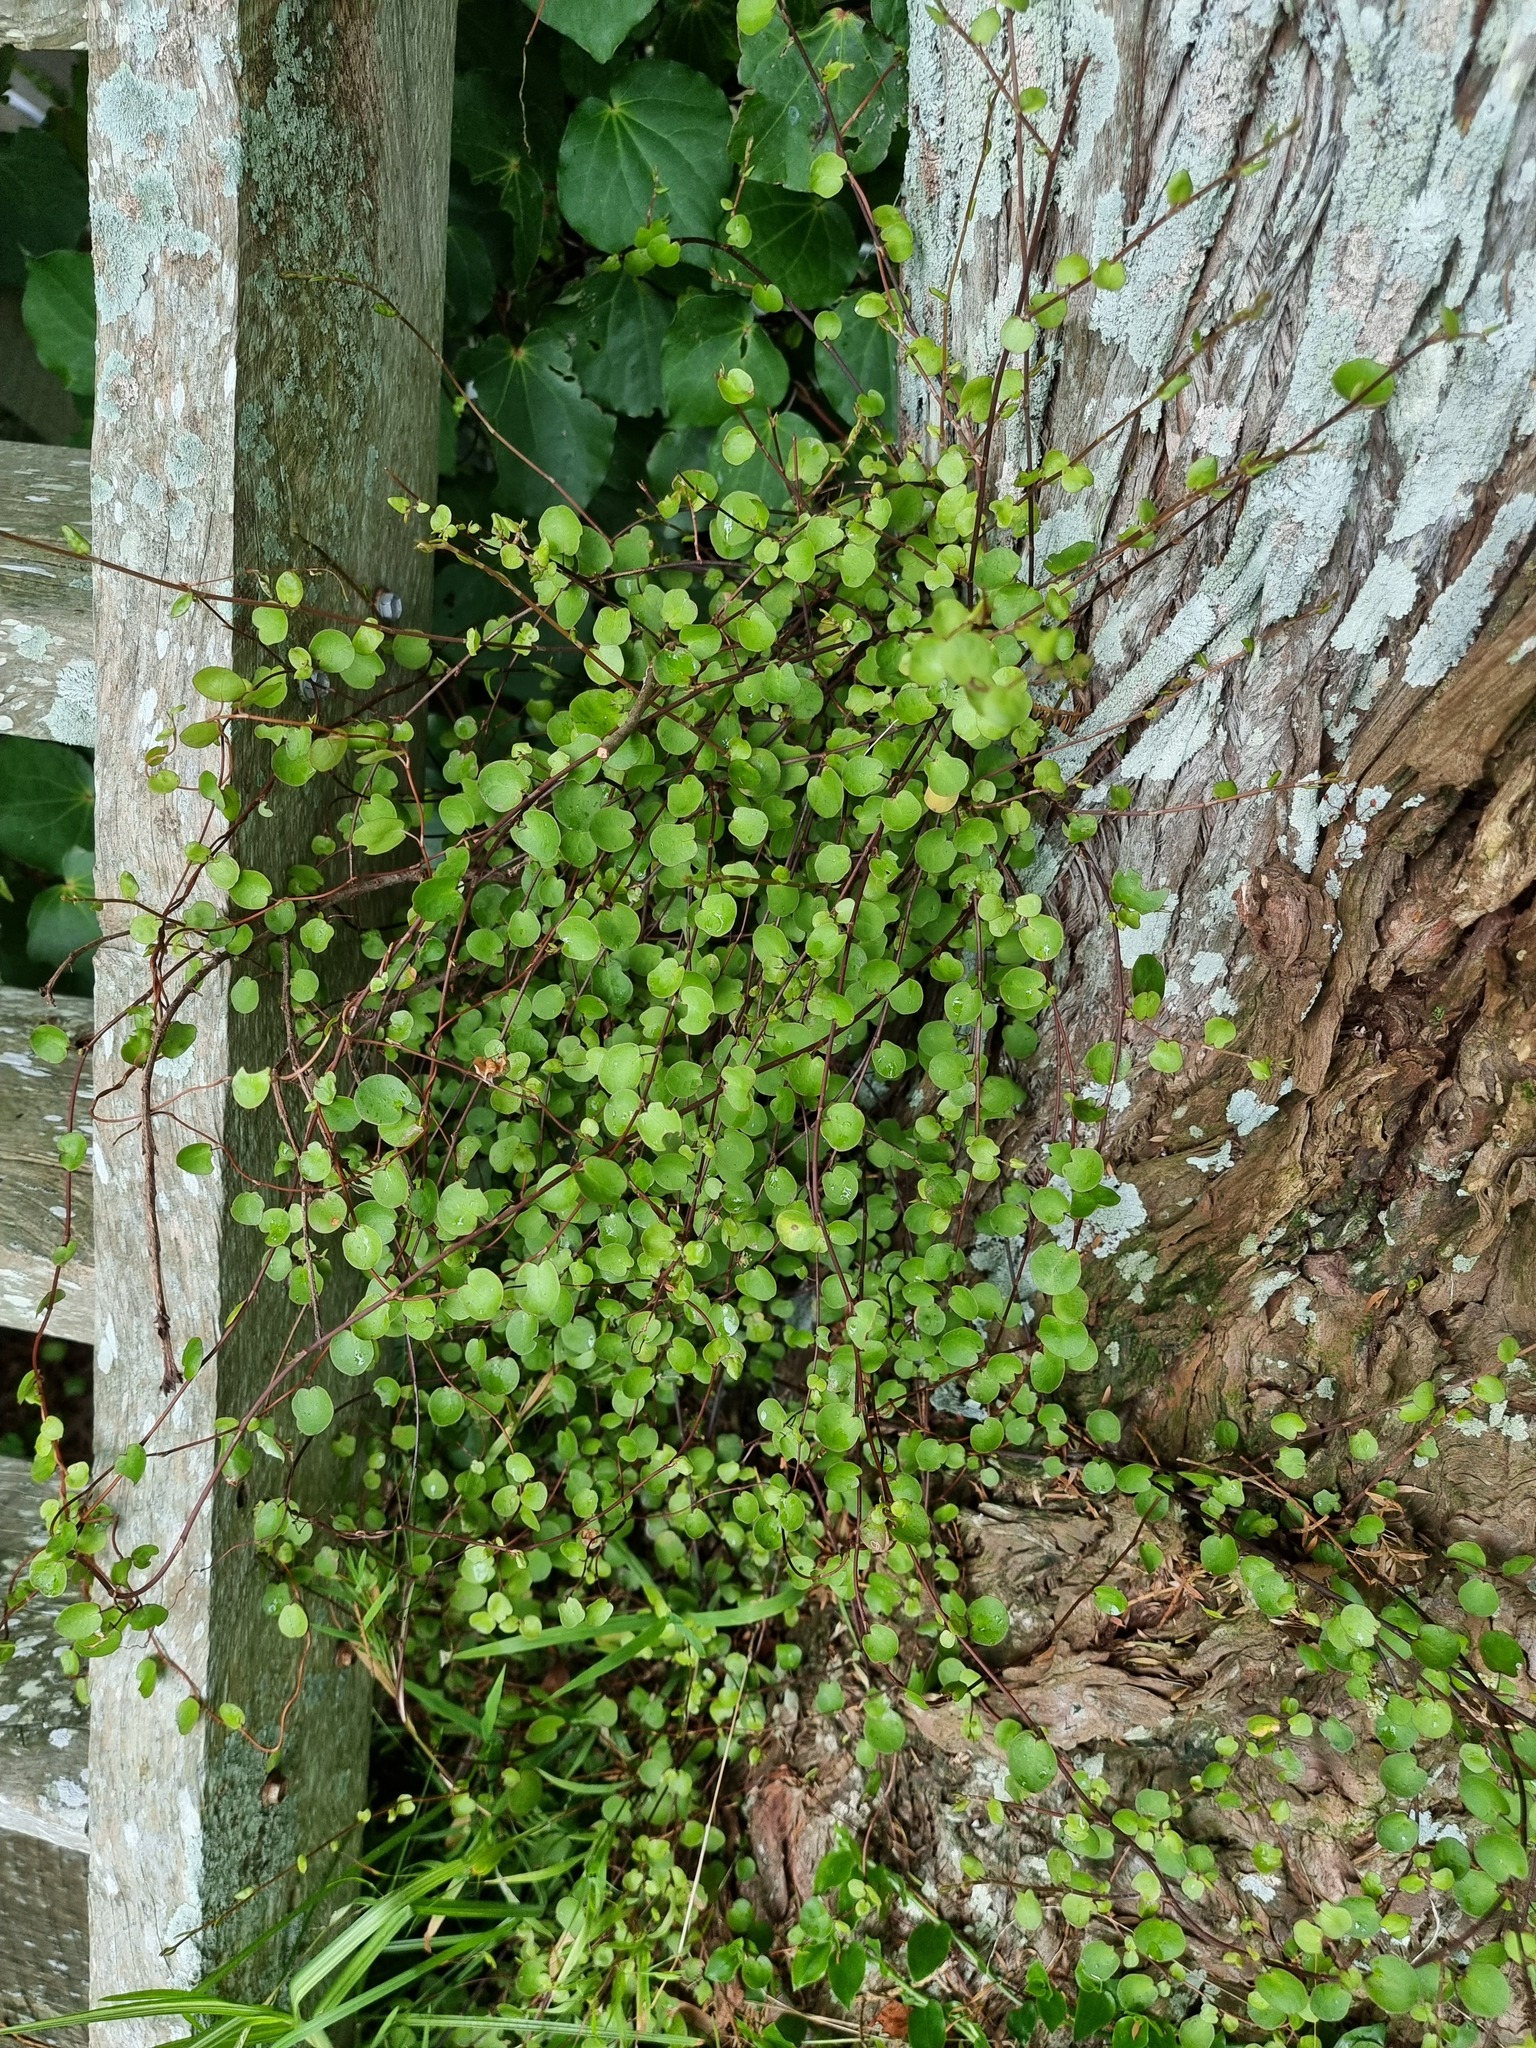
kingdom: Plantae
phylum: Tracheophyta
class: Magnoliopsida
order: Caryophyllales
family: Polygonaceae
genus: Muehlenbeckia
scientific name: Muehlenbeckia complexa
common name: Wireplant
